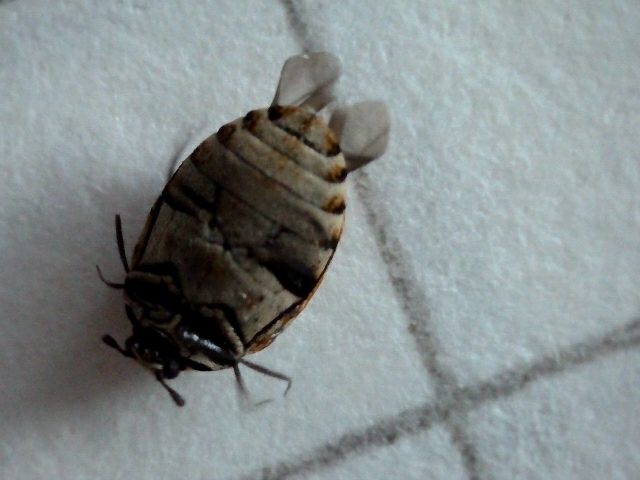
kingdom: Animalia
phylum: Arthropoda
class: Insecta
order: Coleoptera
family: Dermestidae
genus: Anthrenus
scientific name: Anthrenus verbasci
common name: Varied carpet beetle
